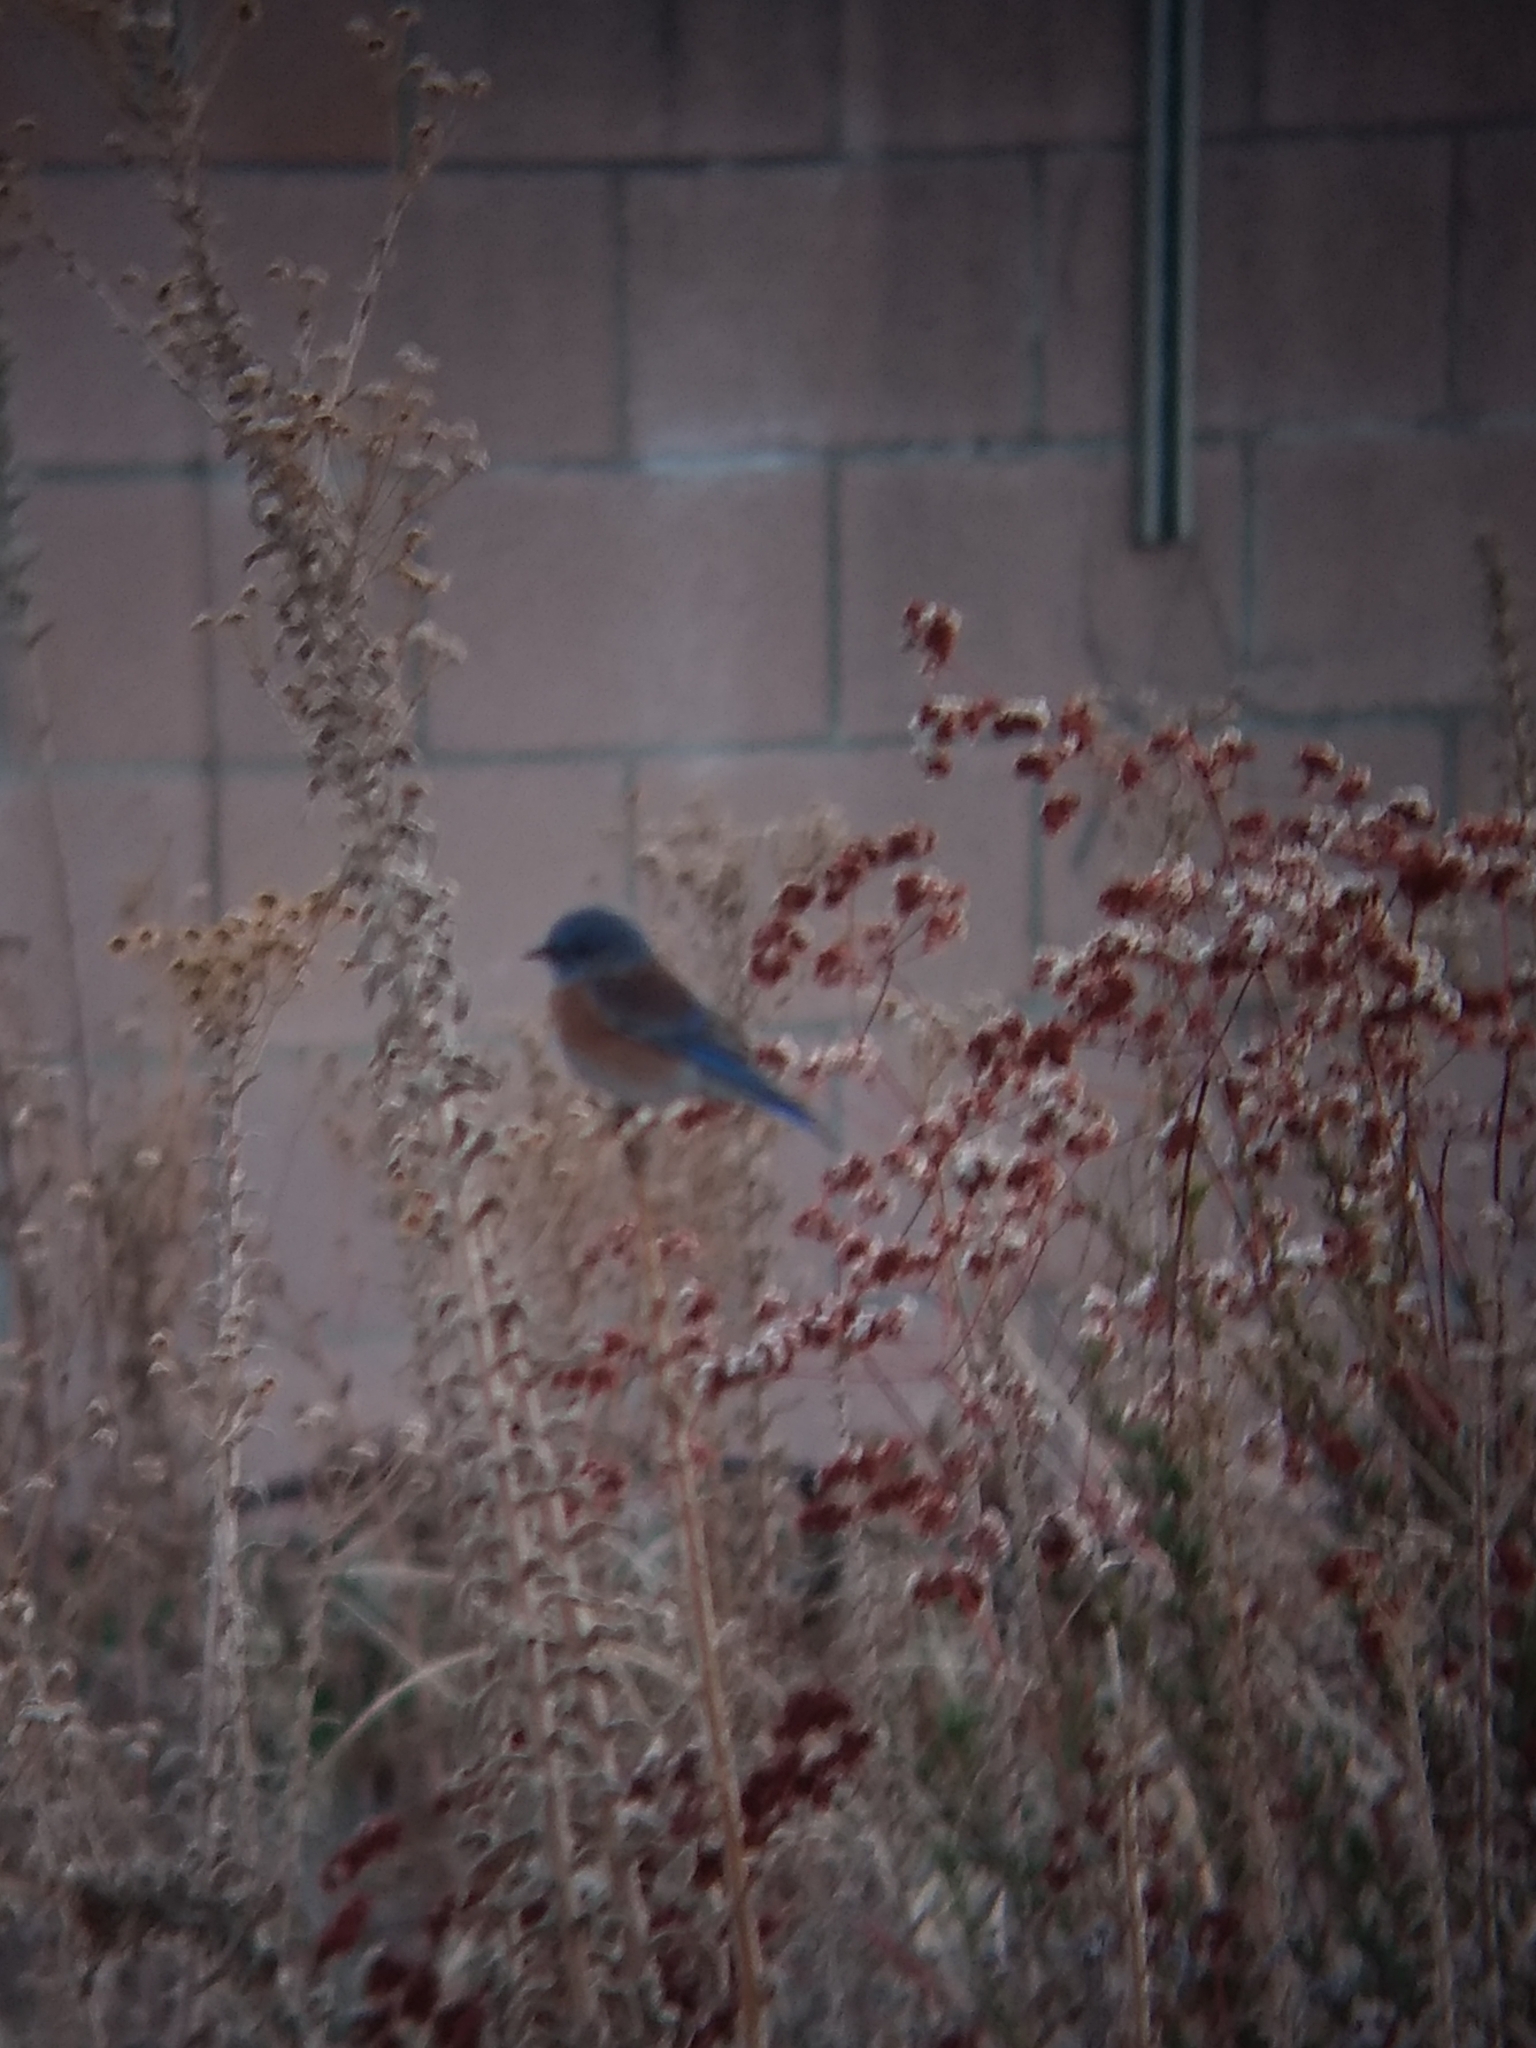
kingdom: Animalia
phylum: Chordata
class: Aves
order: Passeriformes
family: Turdidae
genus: Sialia
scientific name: Sialia mexicana
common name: Western bluebird
